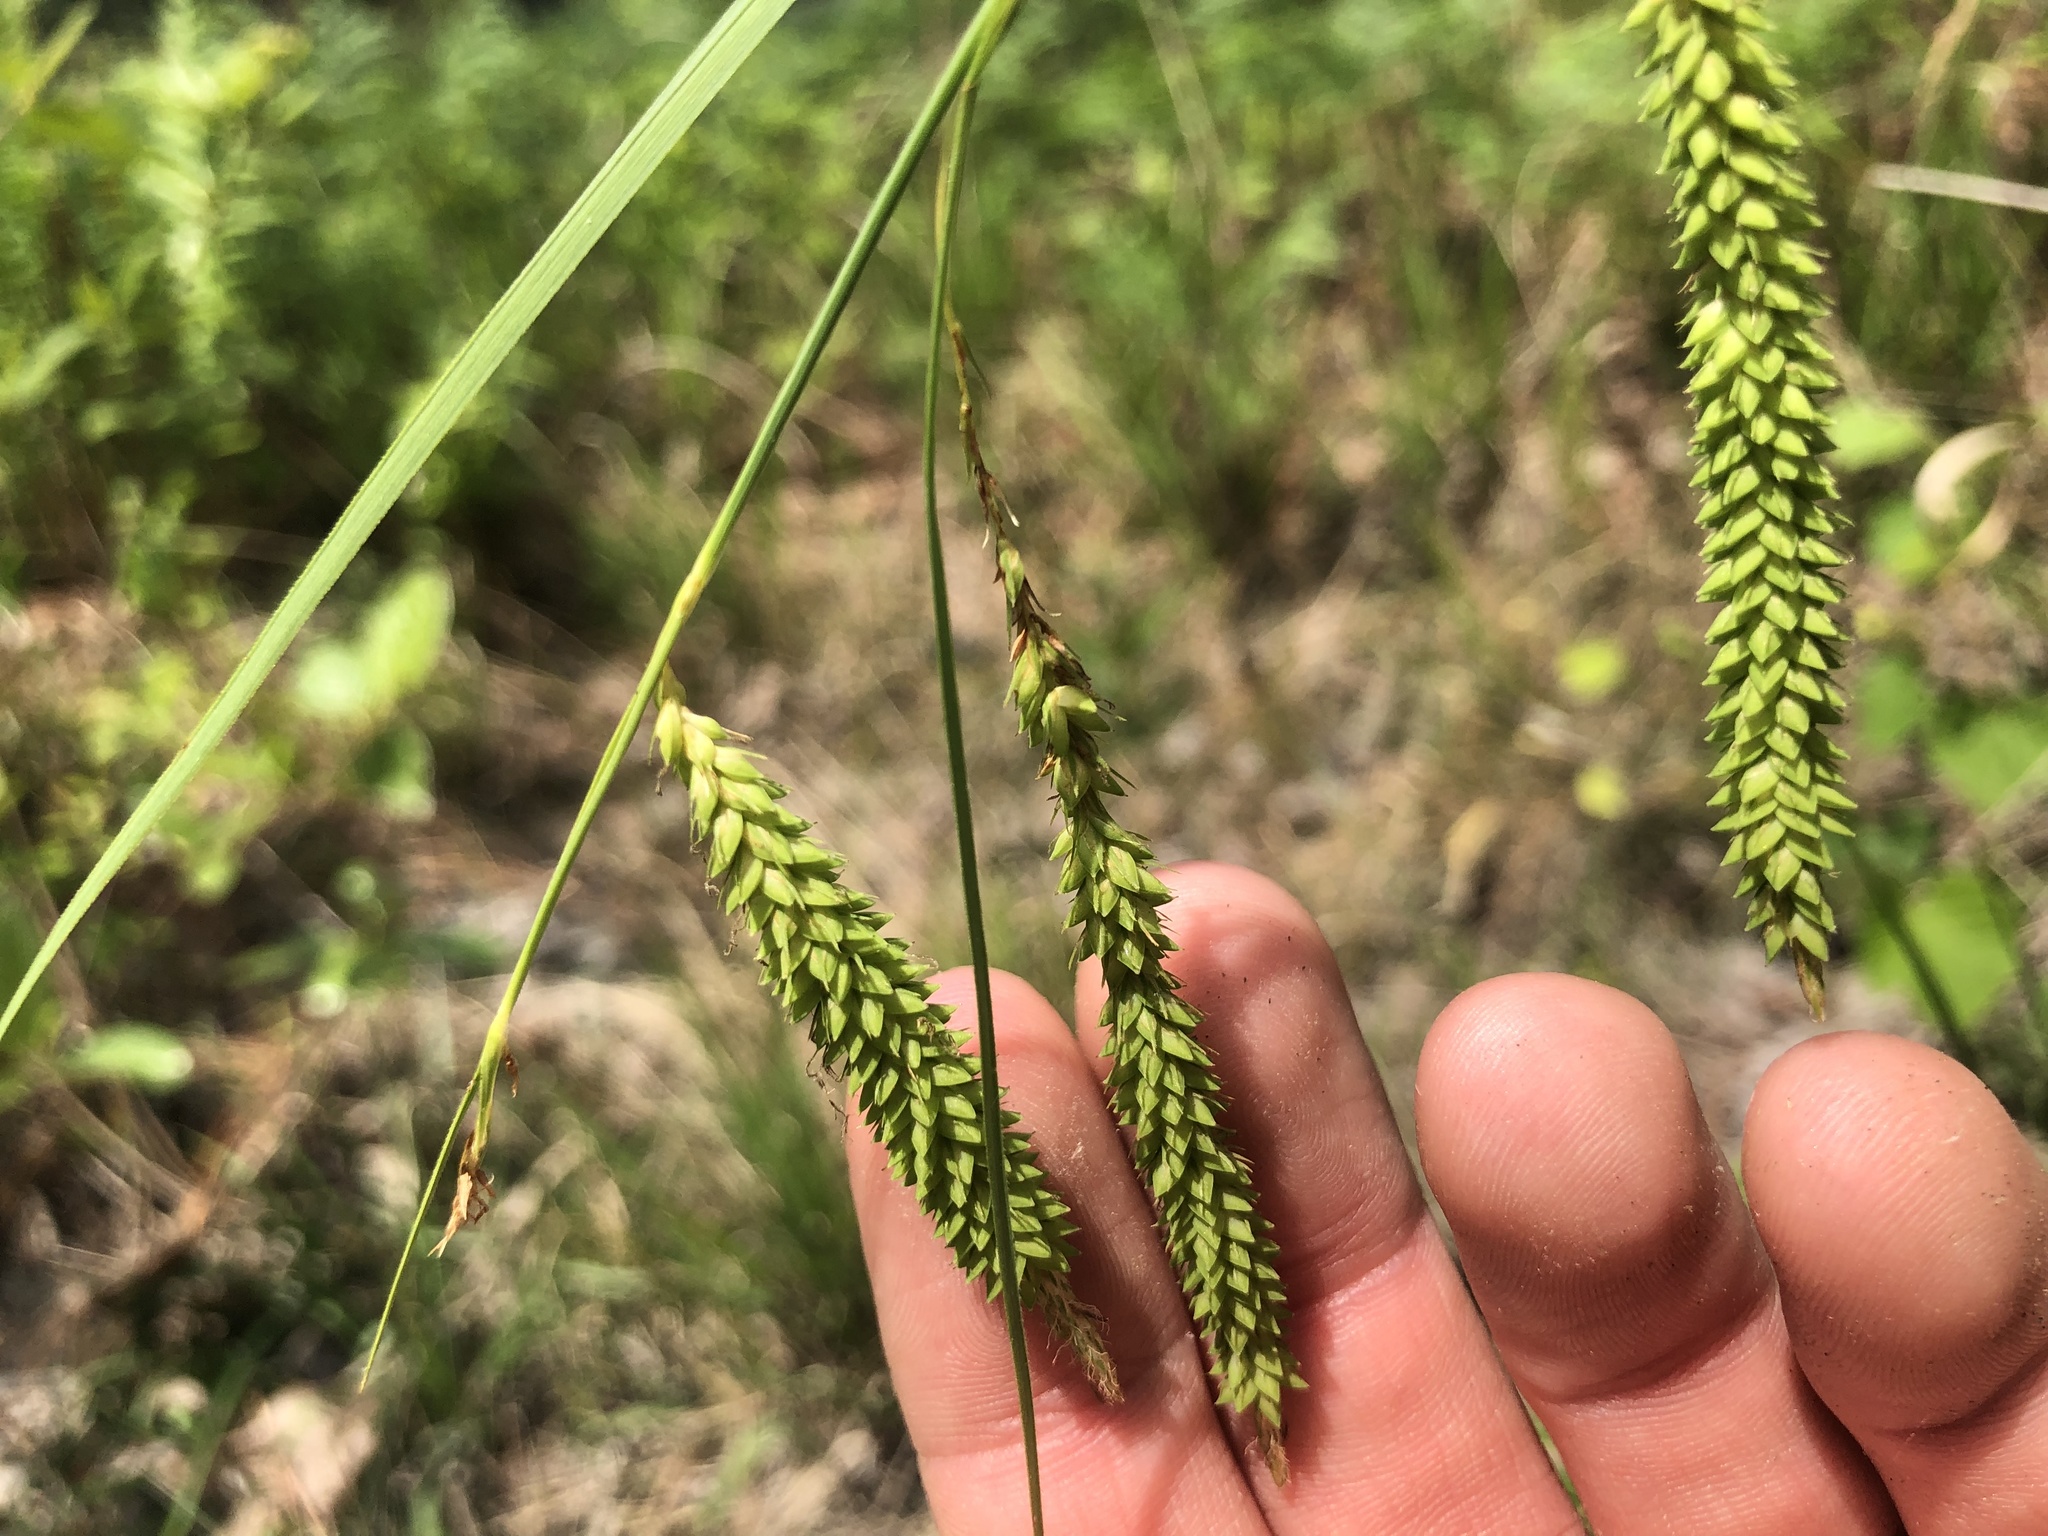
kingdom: Plantae
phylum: Tracheophyta
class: Liliopsida
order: Poales
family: Cyperaceae
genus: Carex
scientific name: Carex mitchelliana
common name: Mitchell's sedge
